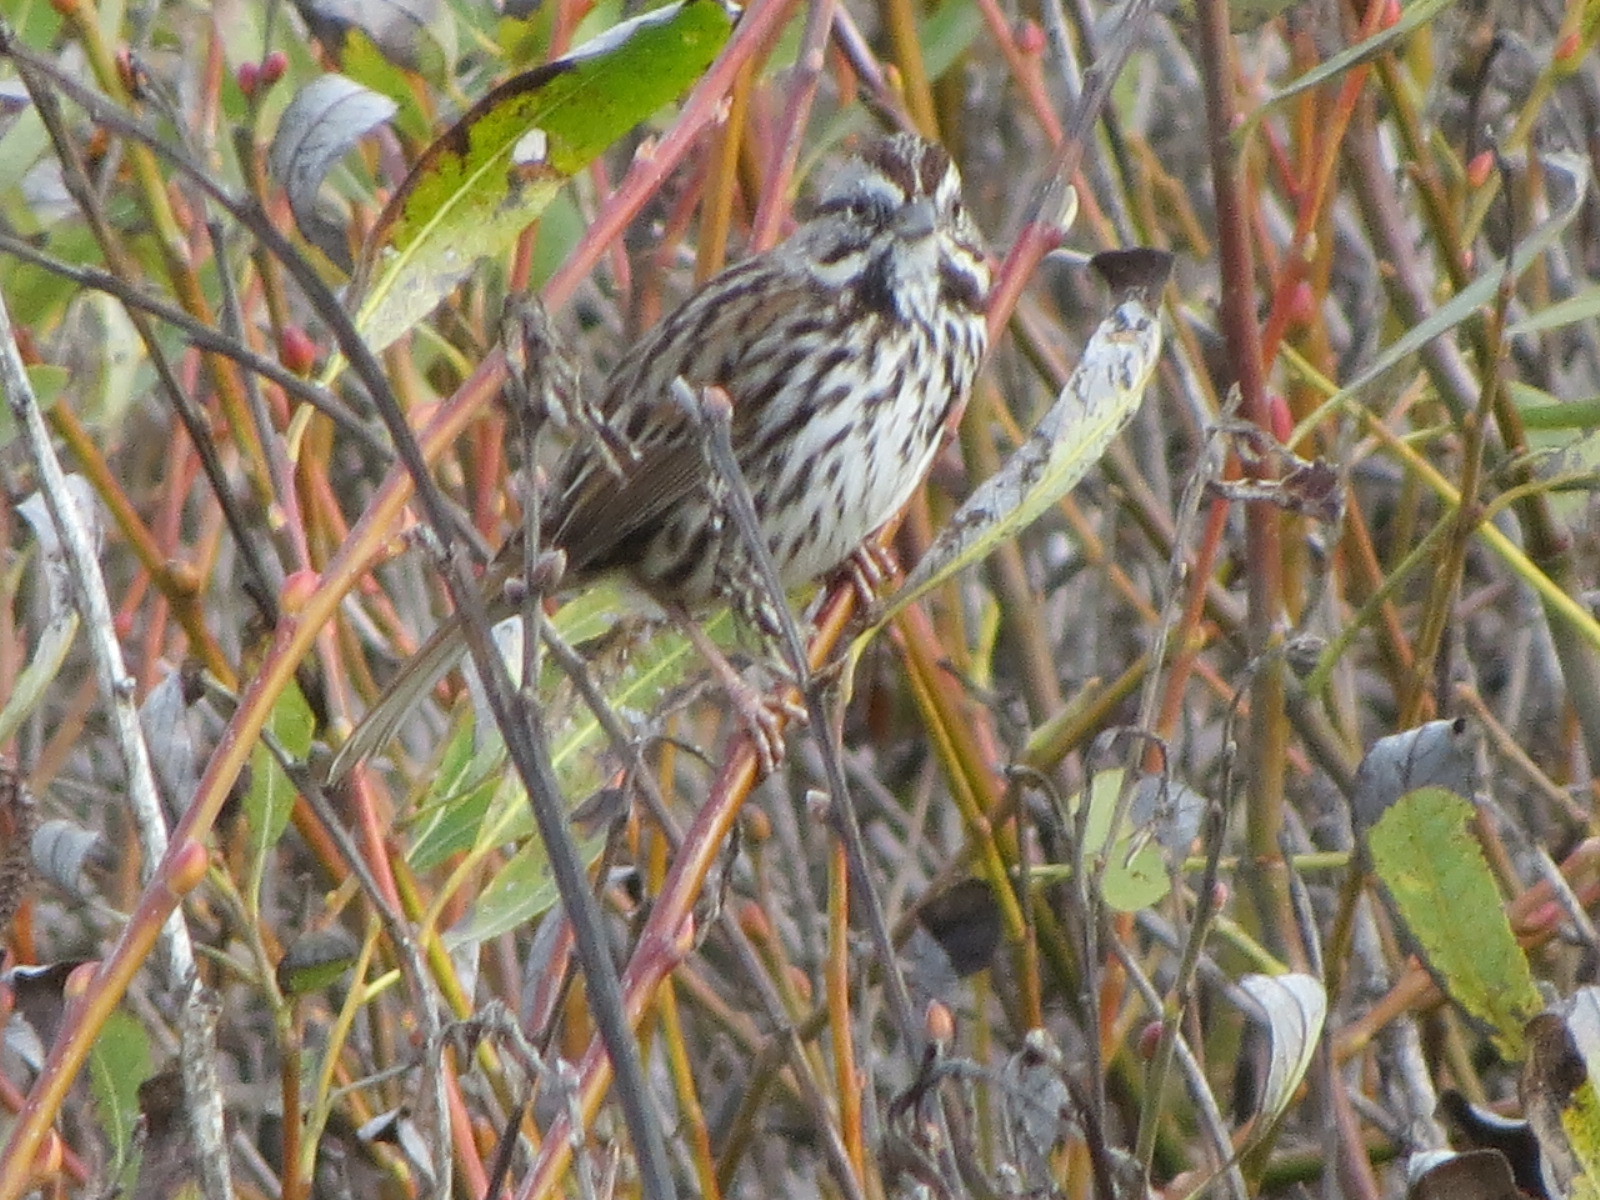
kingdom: Animalia
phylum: Chordata
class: Aves
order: Passeriformes
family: Passerellidae
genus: Melospiza
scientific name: Melospiza melodia
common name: Song sparrow
